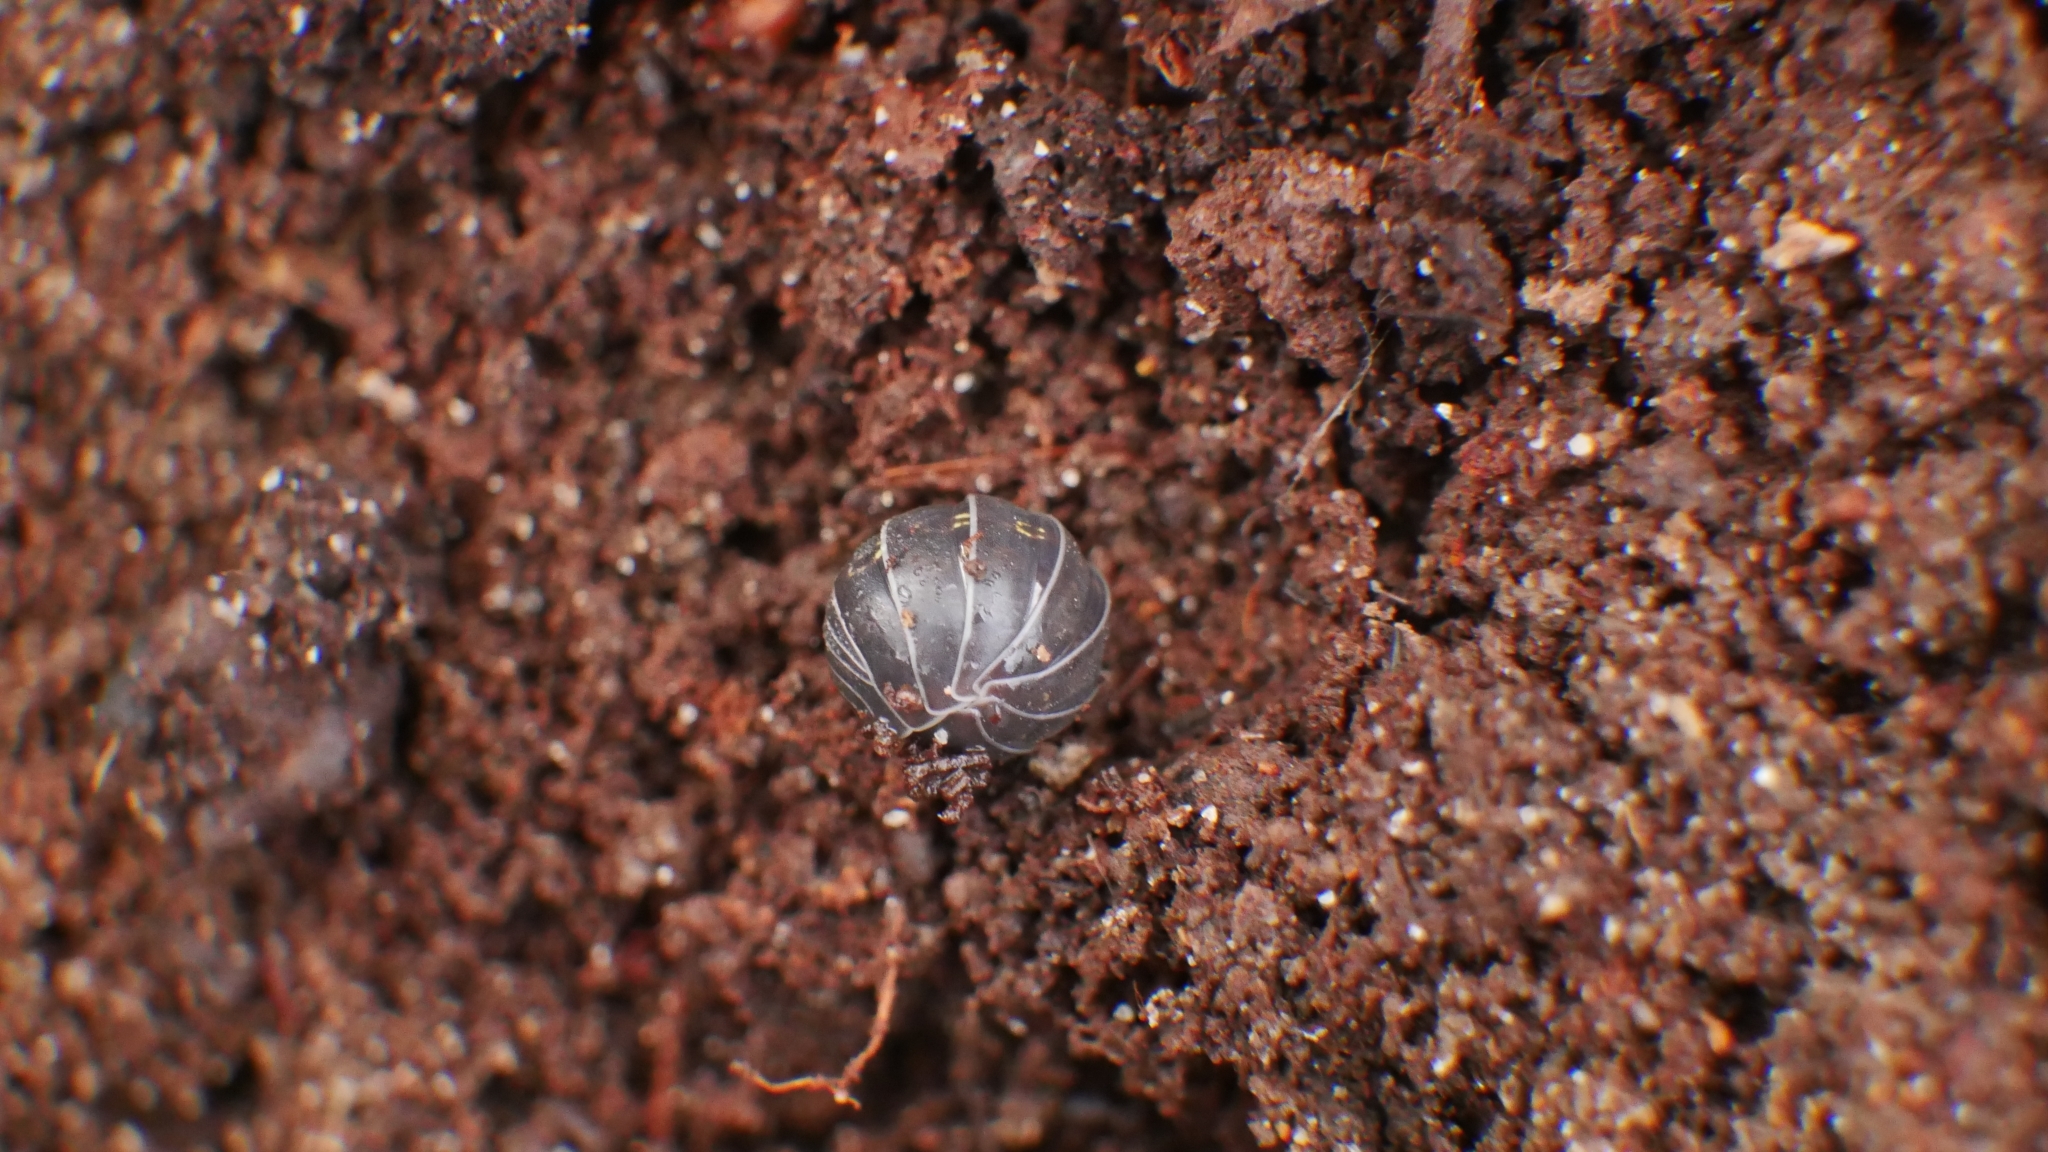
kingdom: Animalia
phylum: Arthropoda
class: Malacostraca
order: Isopoda
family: Armadillidiidae
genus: Armadillidium
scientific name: Armadillidium vulgare
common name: Common pill woodlouse
